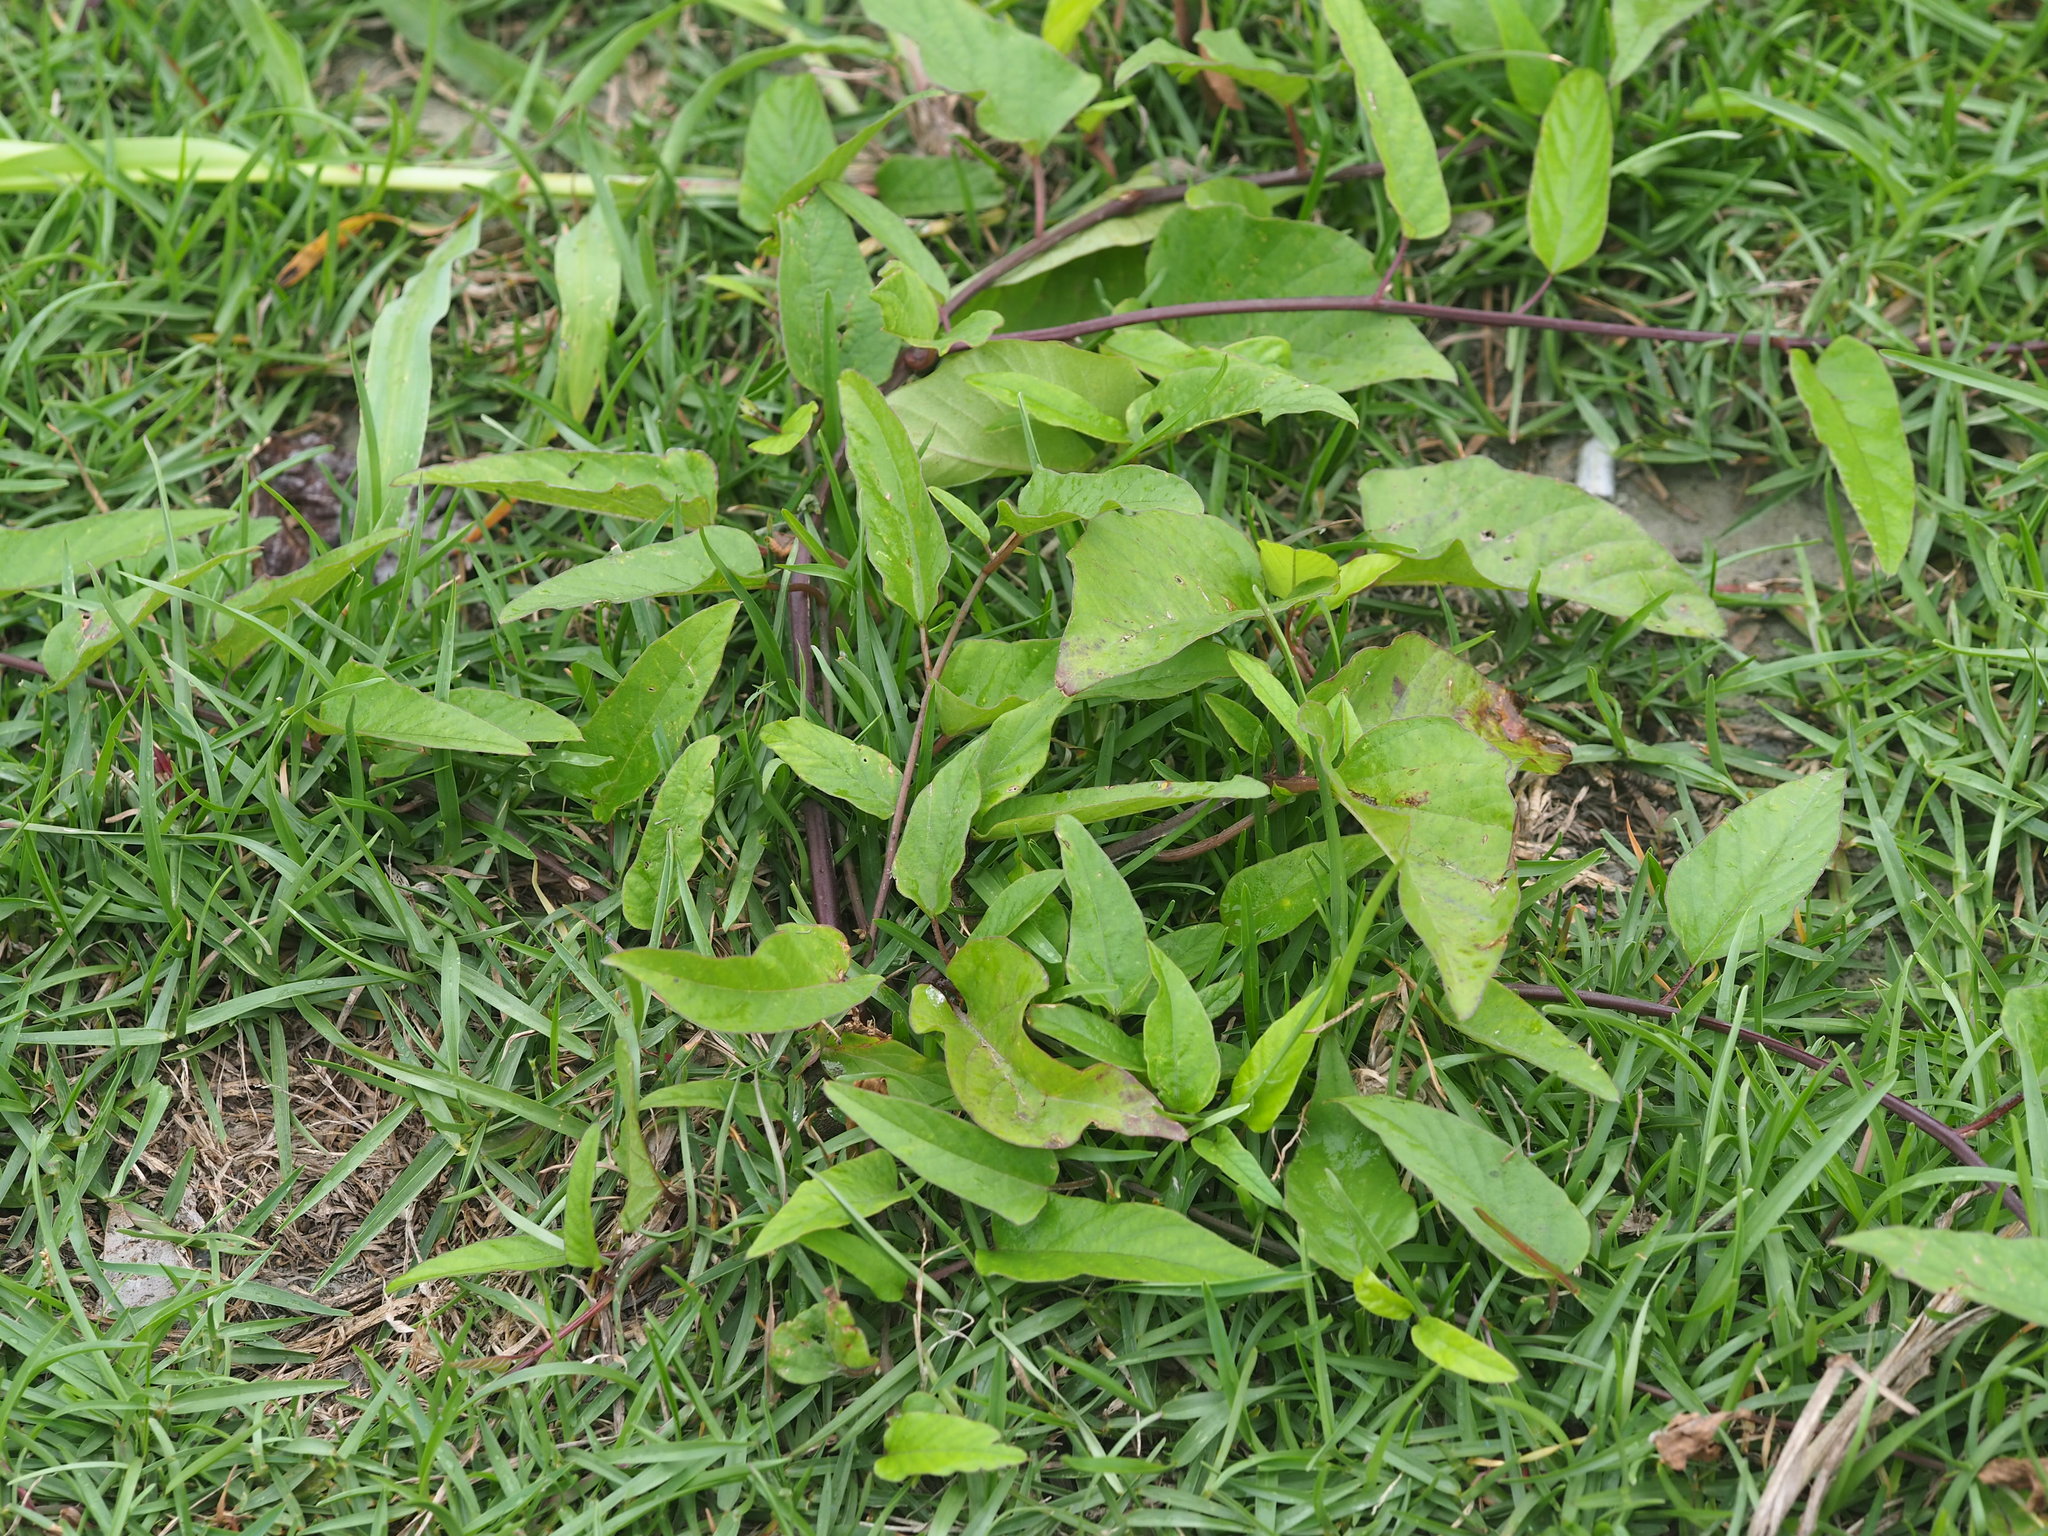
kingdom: Plantae
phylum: Tracheophyta
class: Magnoliopsida
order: Solanales
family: Convolvulaceae
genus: Operculina
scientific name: Operculina turpethum
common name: Transparent wood-rose
